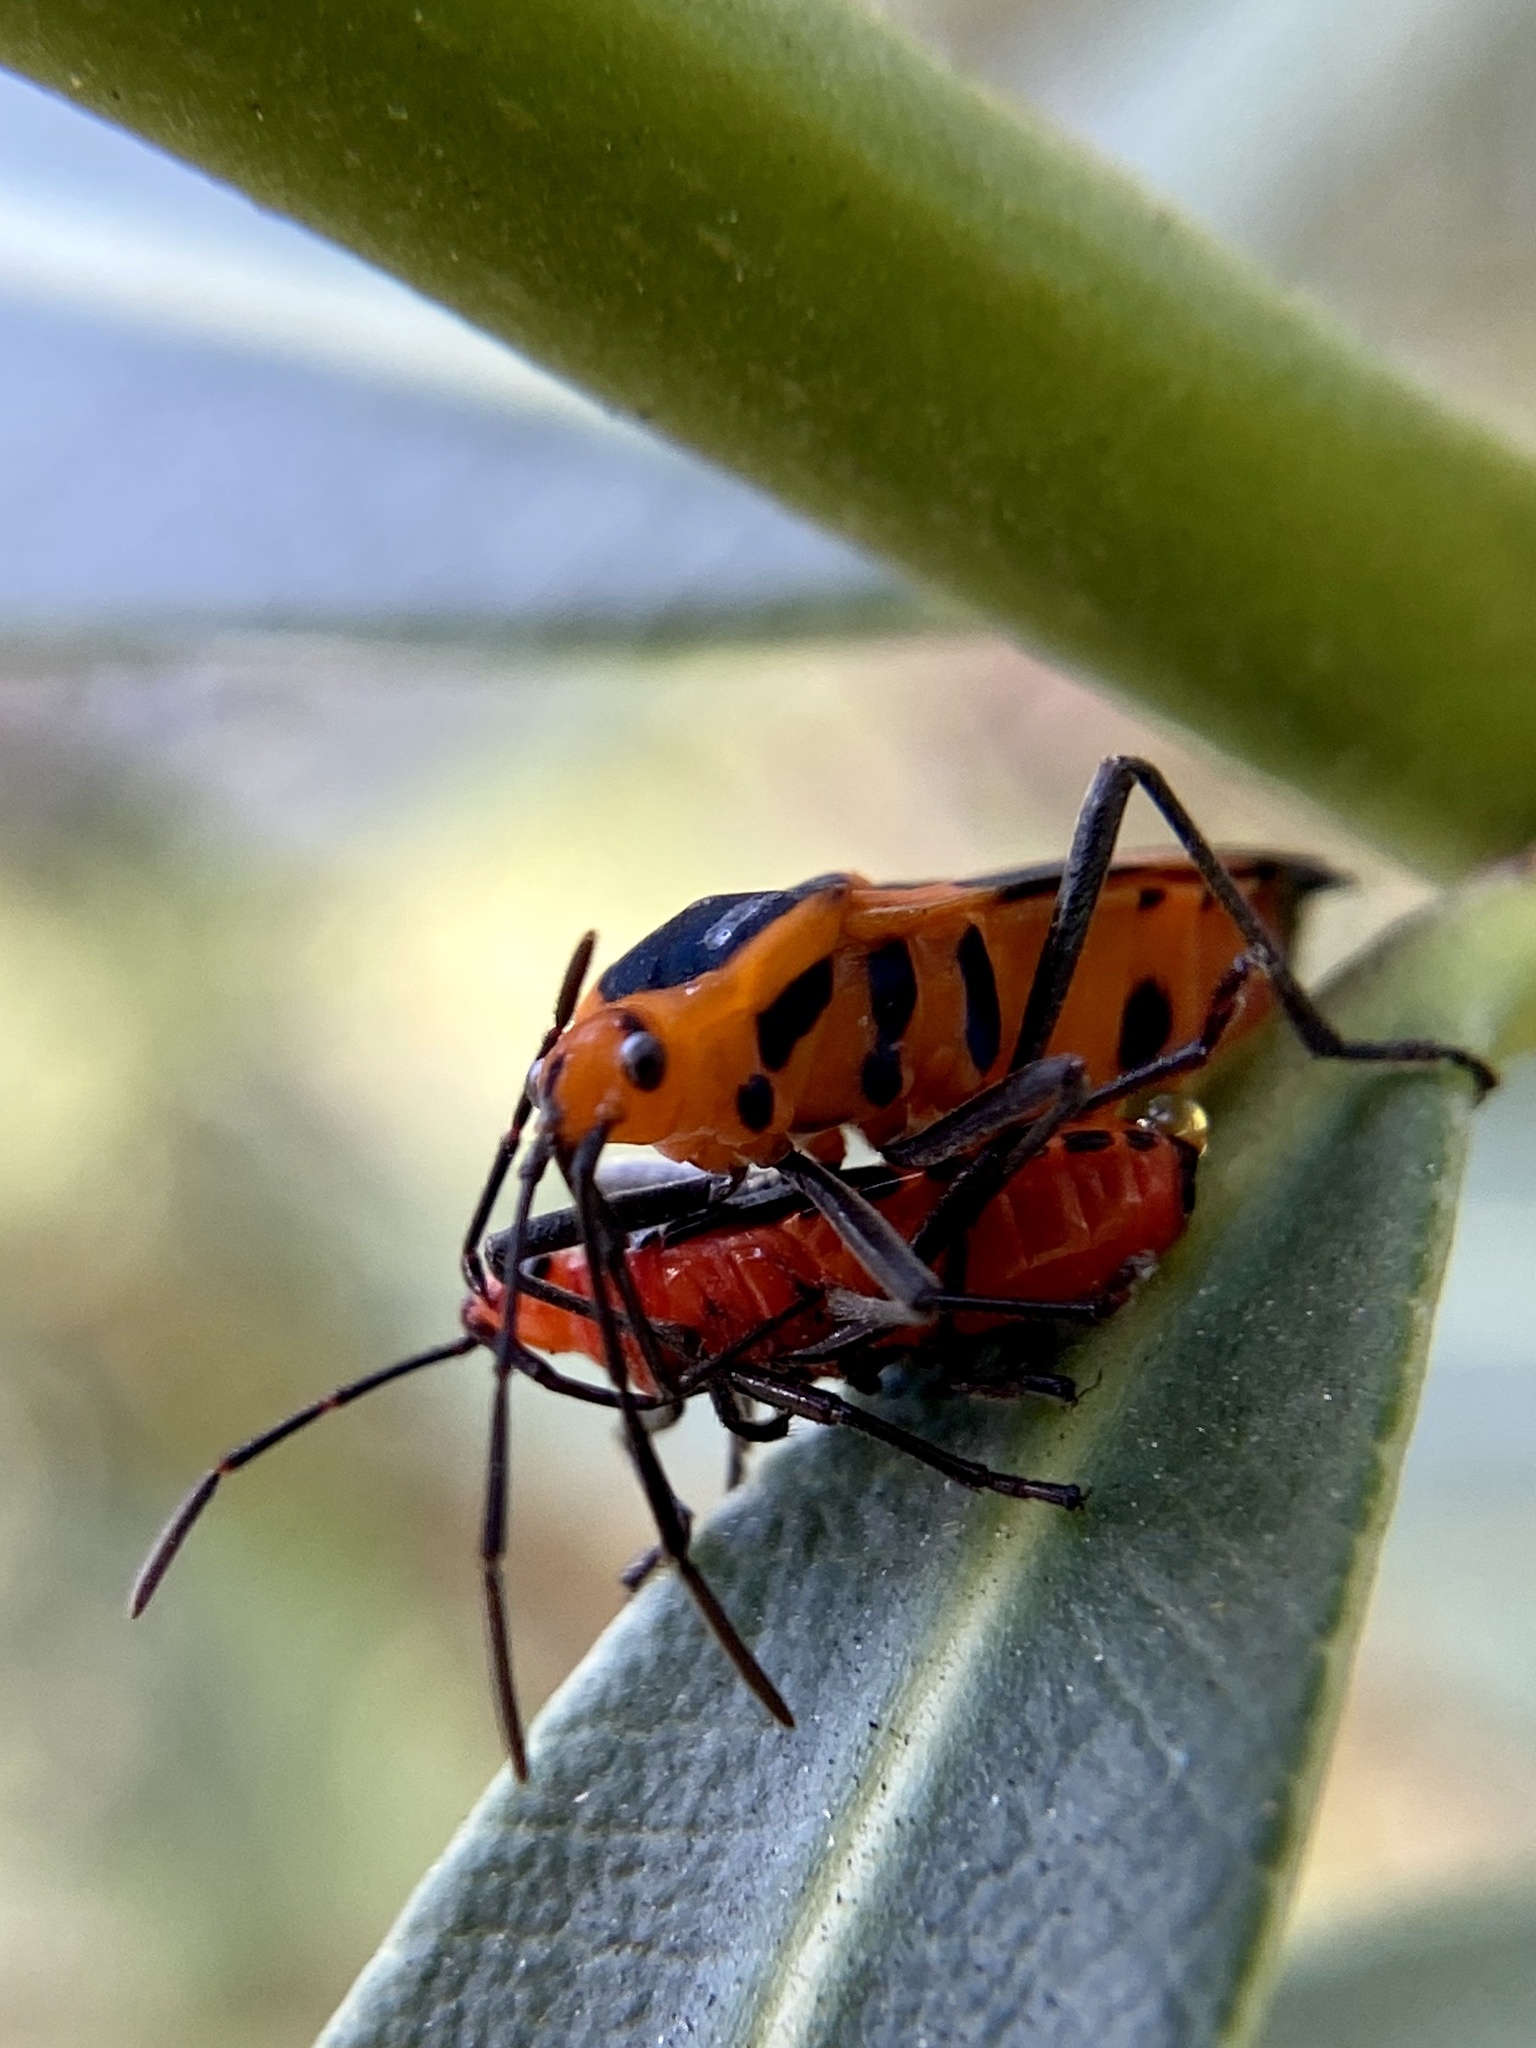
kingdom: Animalia
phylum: Arthropoda
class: Insecta
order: Hemiptera
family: Lygaeidae
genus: Oncopeltus
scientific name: Oncopeltus aulicus
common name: Lygaeid bug
